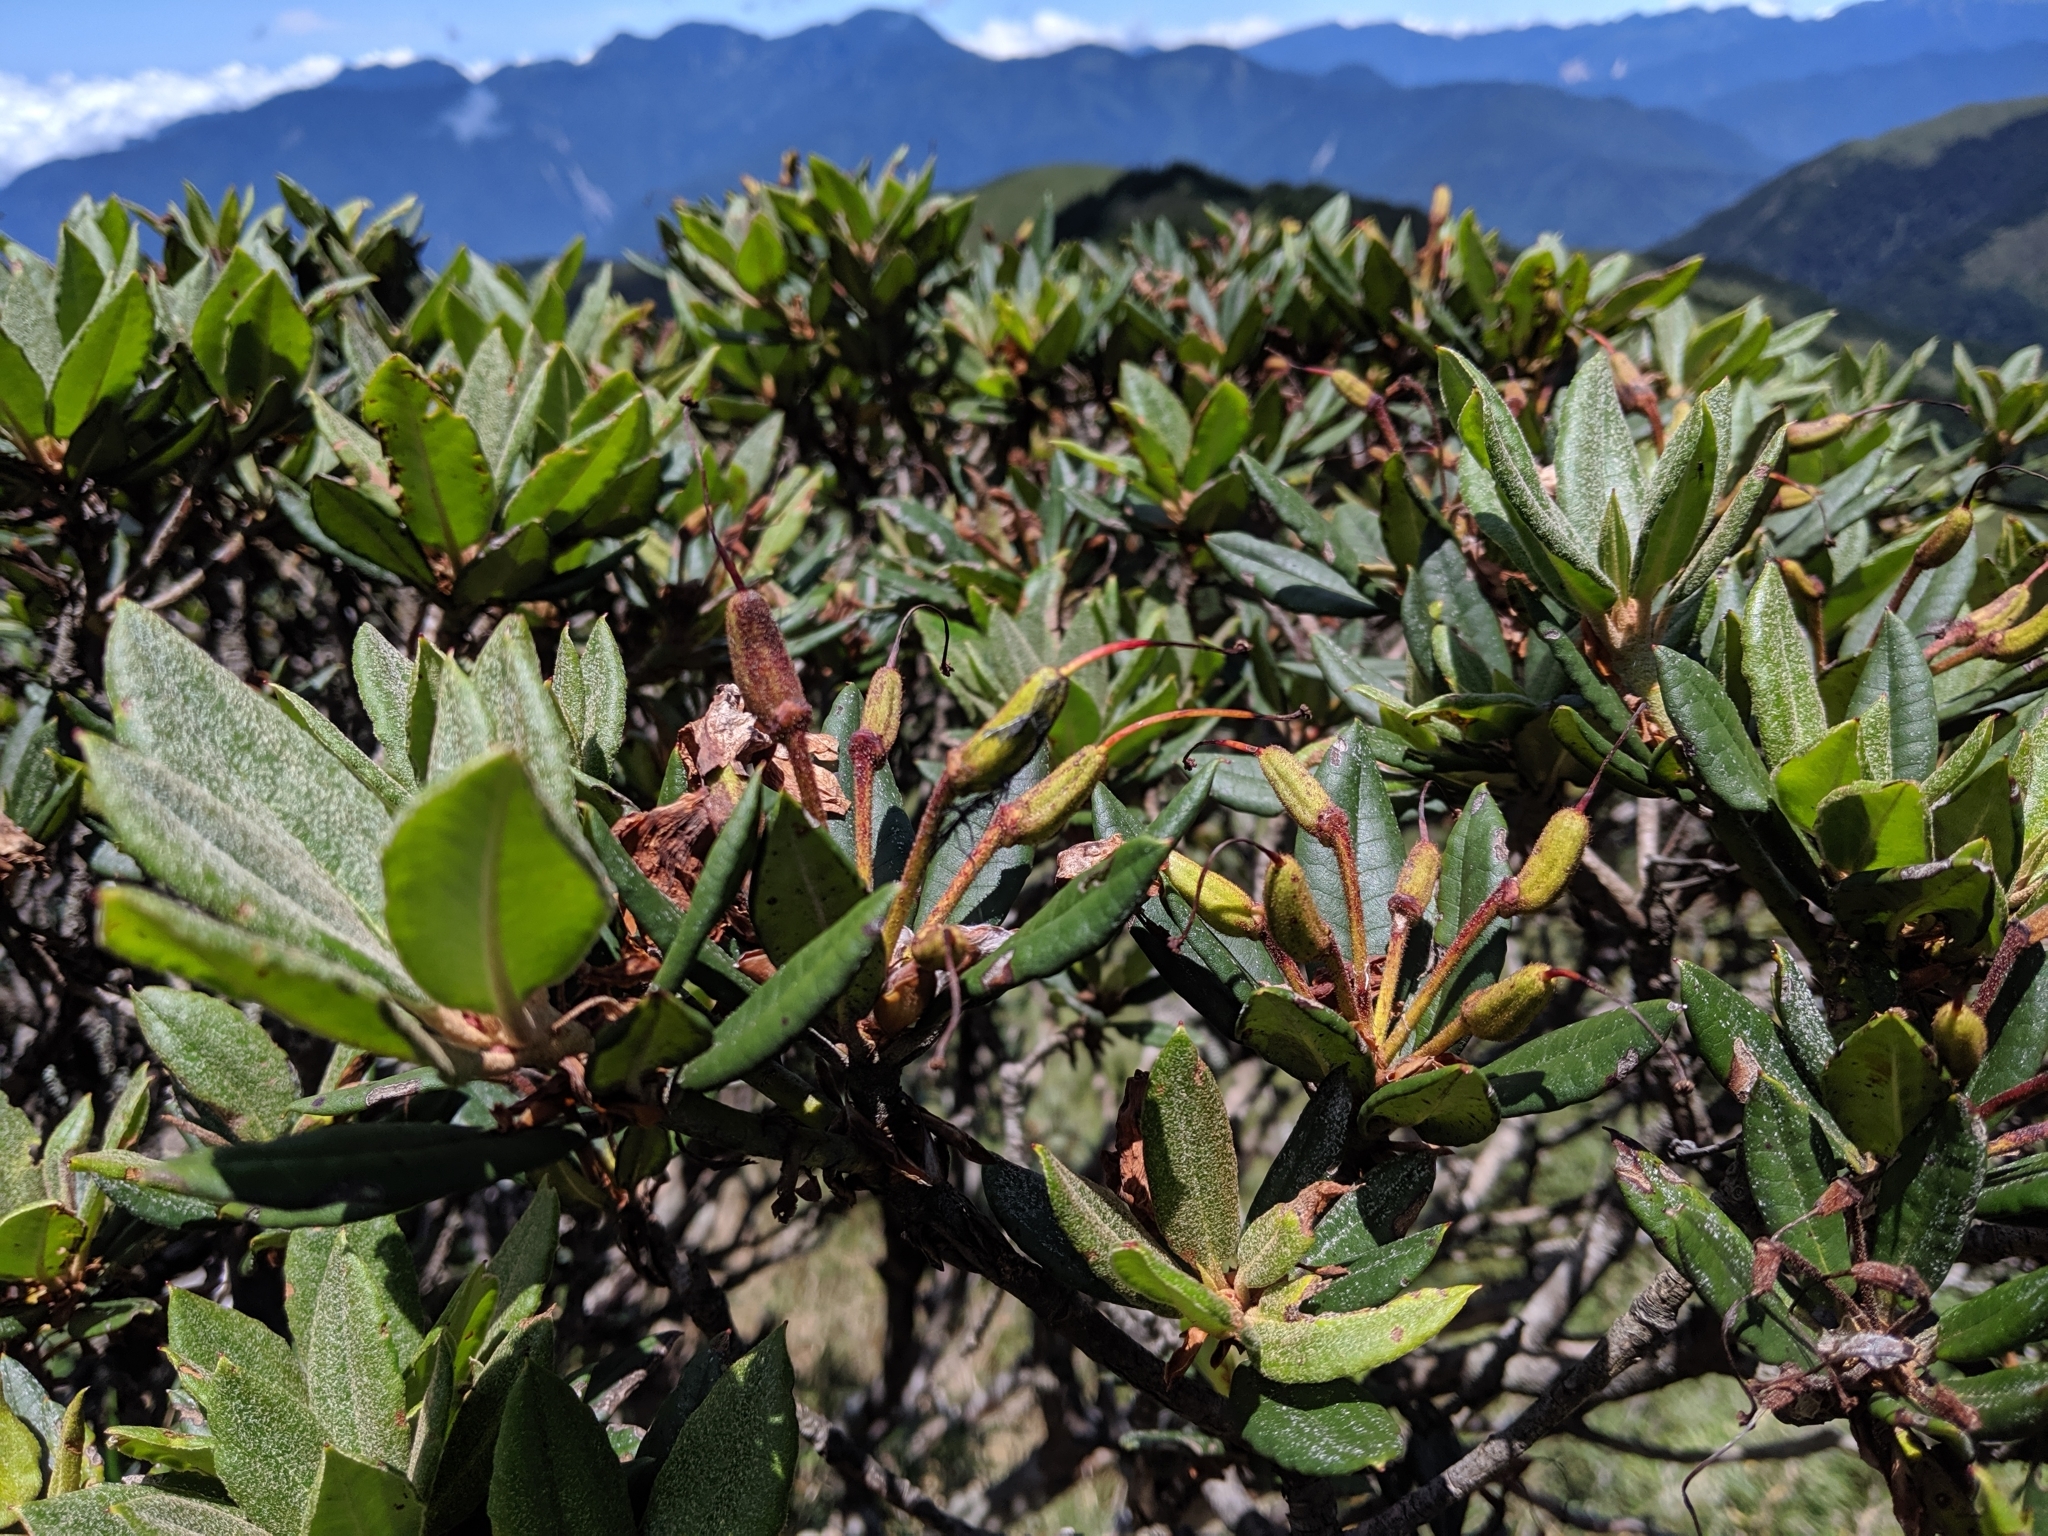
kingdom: Plantae
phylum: Tracheophyta
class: Magnoliopsida
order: Ericales
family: Ericaceae
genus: Rhododendron
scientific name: Rhododendron pseudochrysanthum
